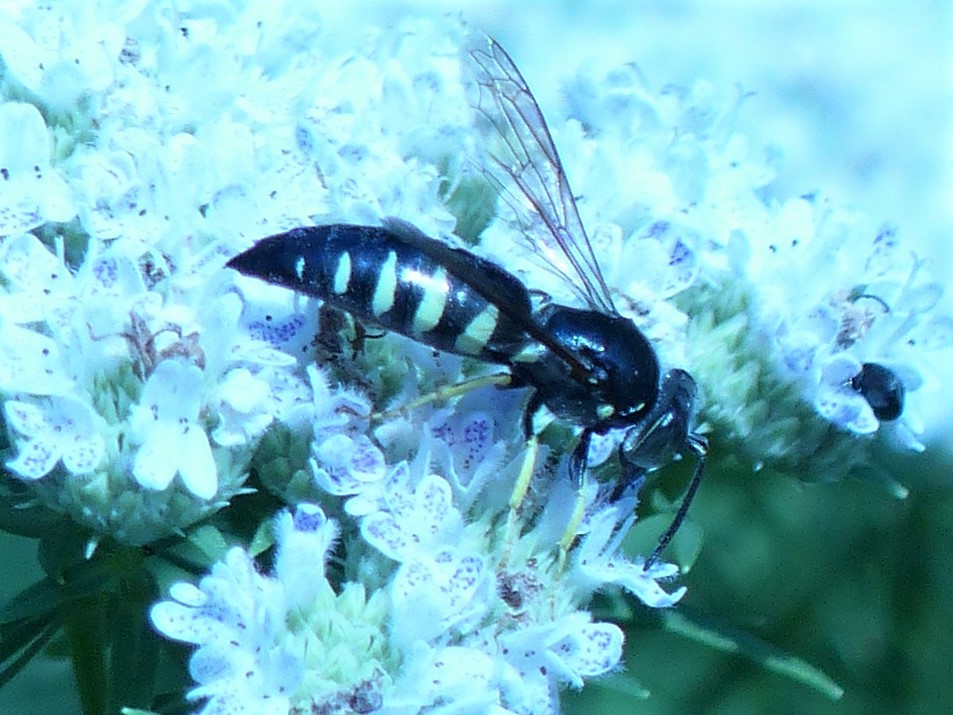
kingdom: Animalia
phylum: Arthropoda
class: Insecta
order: Hymenoptera
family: Crabronidae
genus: Bicyrtes
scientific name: Bicyrtes quadrifasciatus
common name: Four-banded stink bug hunter wasp
